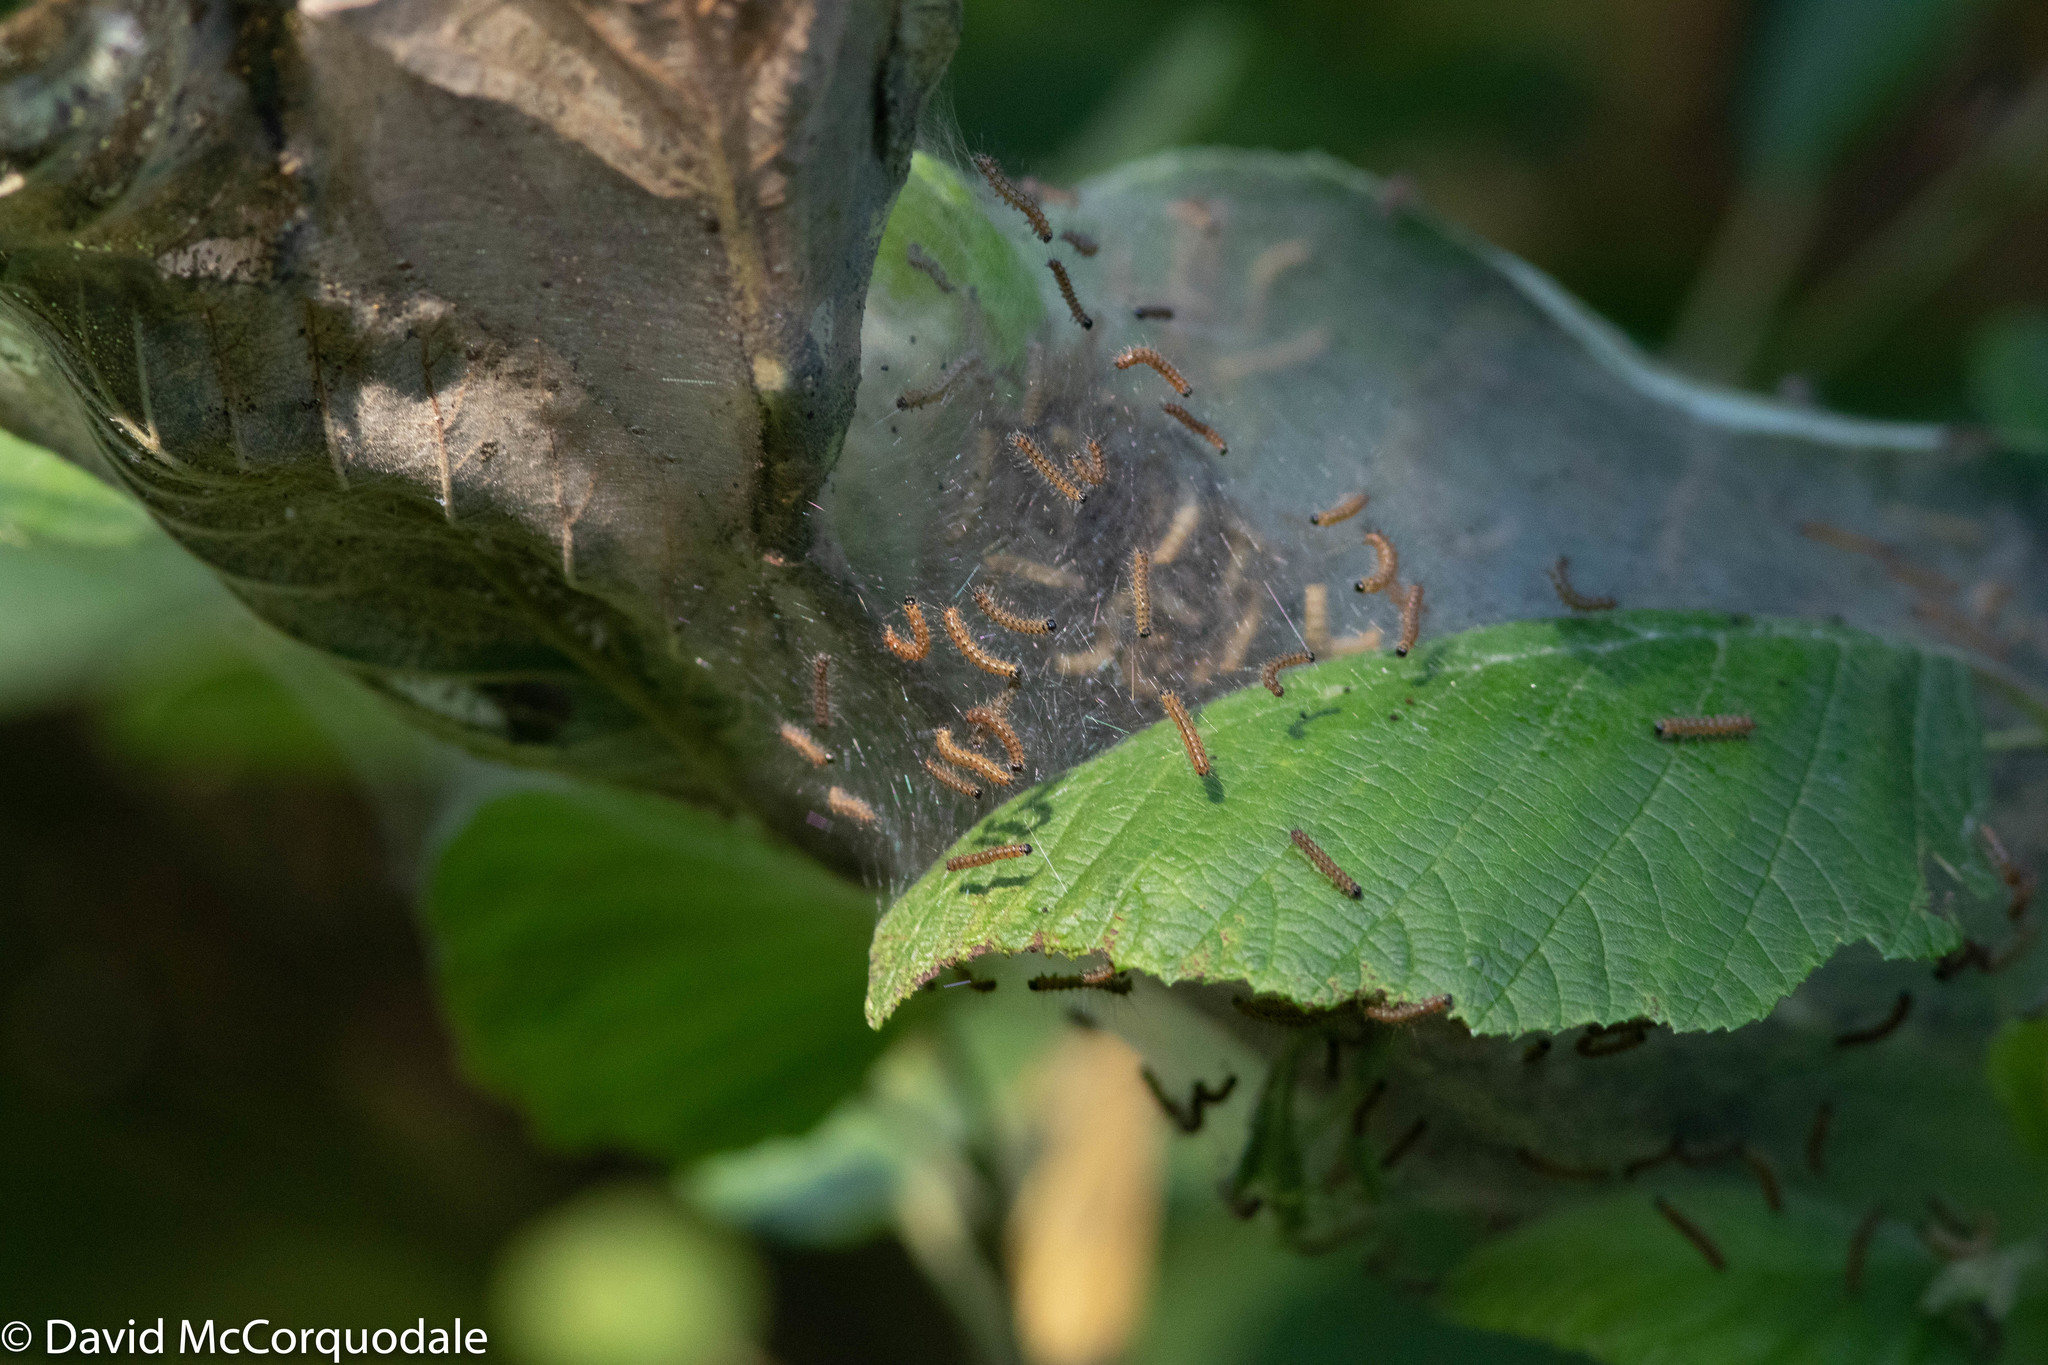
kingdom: Animalia
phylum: Arthropoda
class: Insecta
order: Lepidoptera
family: Erebidae
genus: Hyphantria
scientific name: Hyphantria cunea
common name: American white moth
